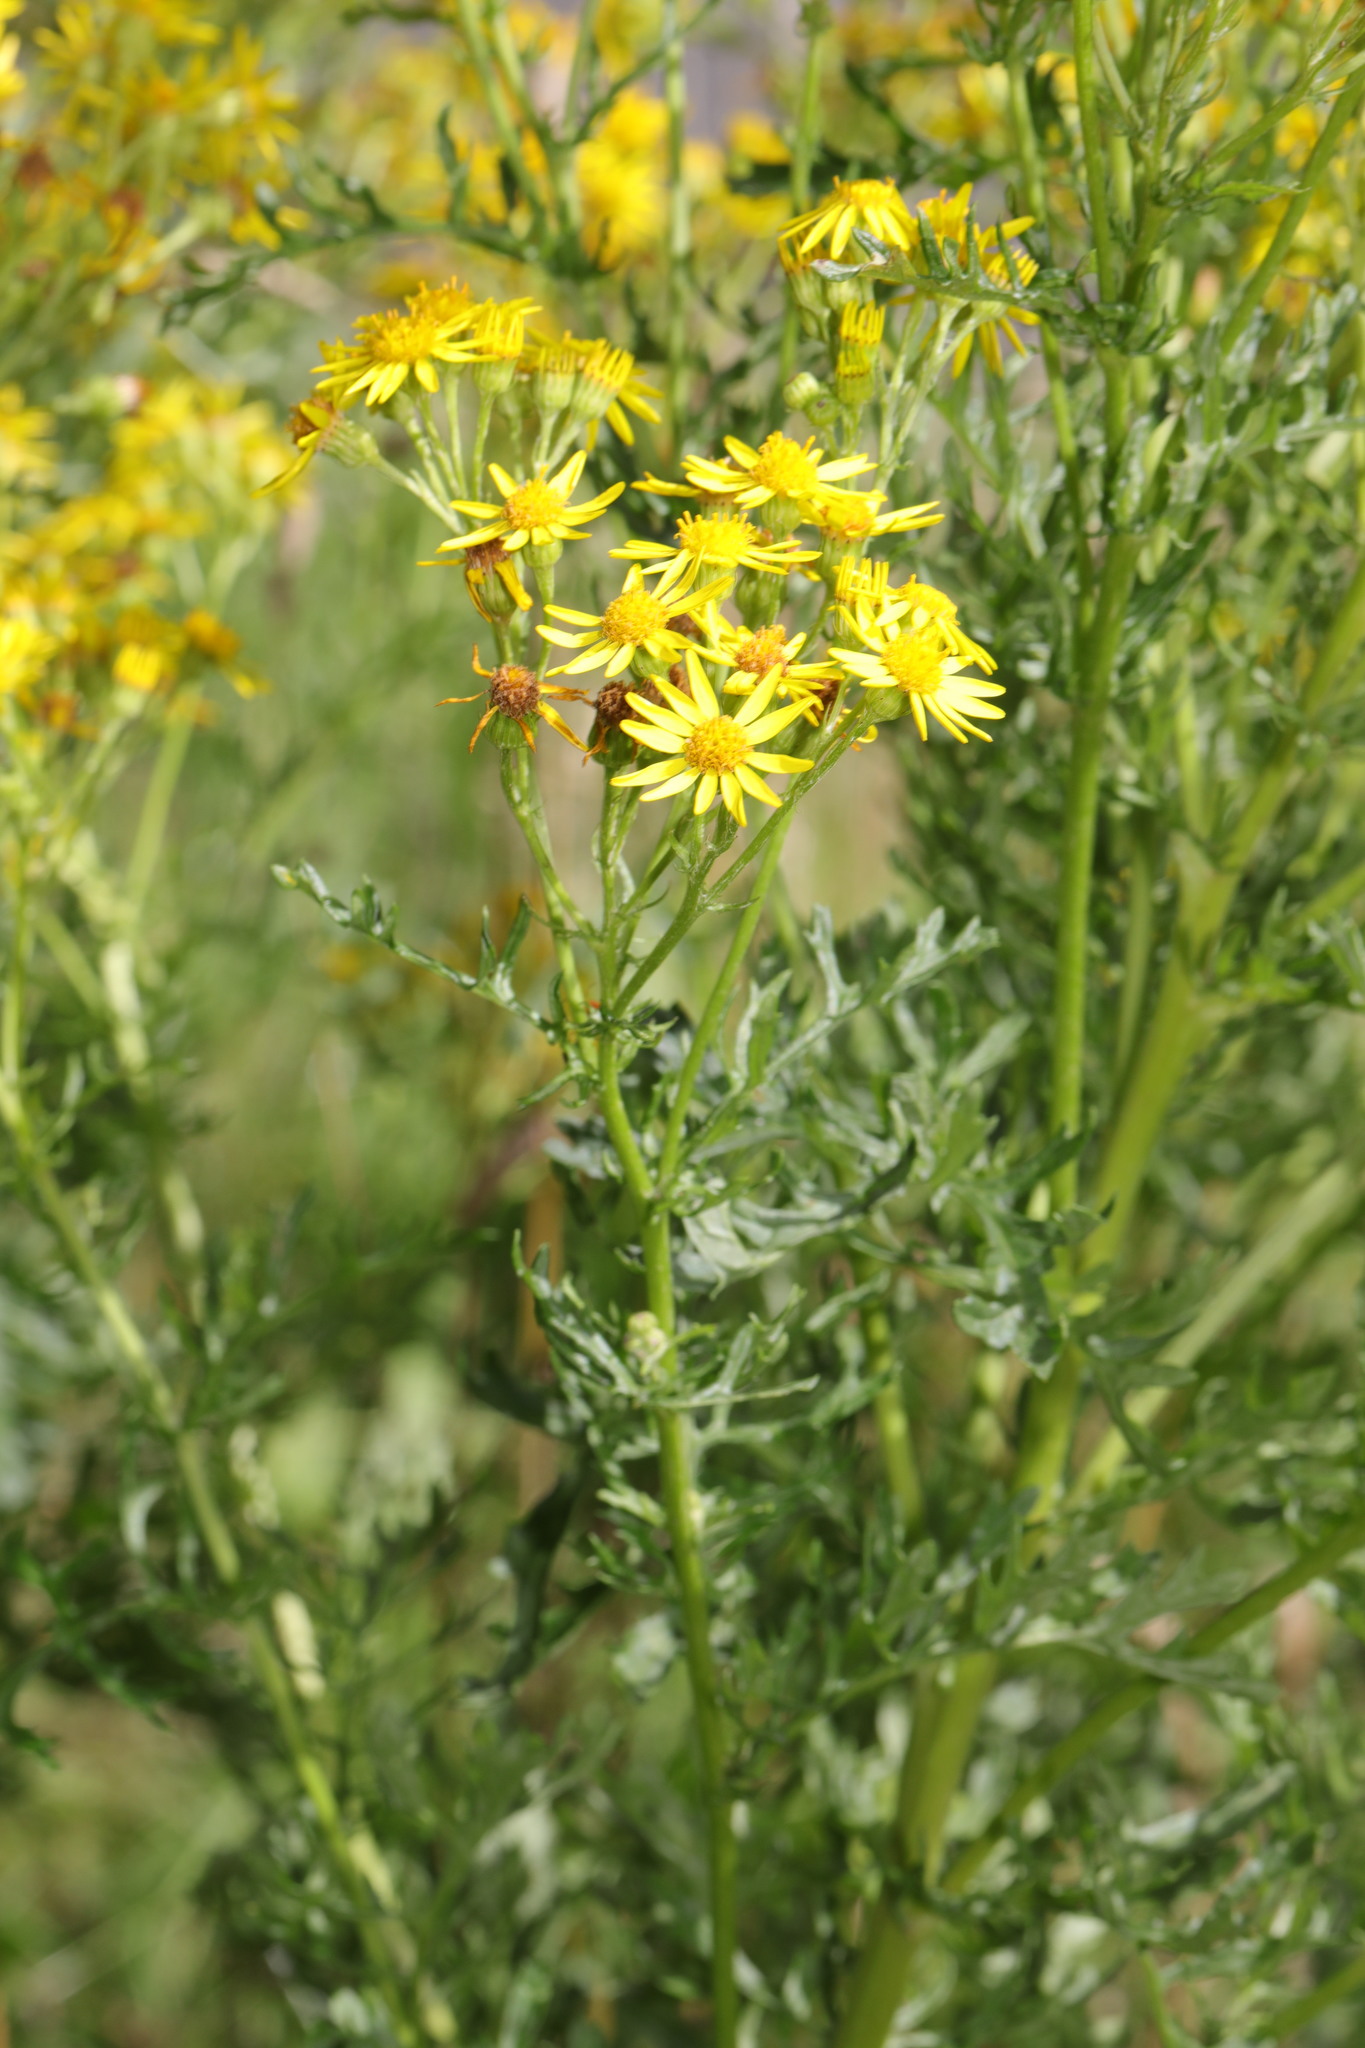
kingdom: Plantae
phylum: Tracheophyta
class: Magnoliopsida
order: Asterales
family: Asteraceae
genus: Jacobaea
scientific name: Jacobaea vulgaris
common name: Stinking willie
